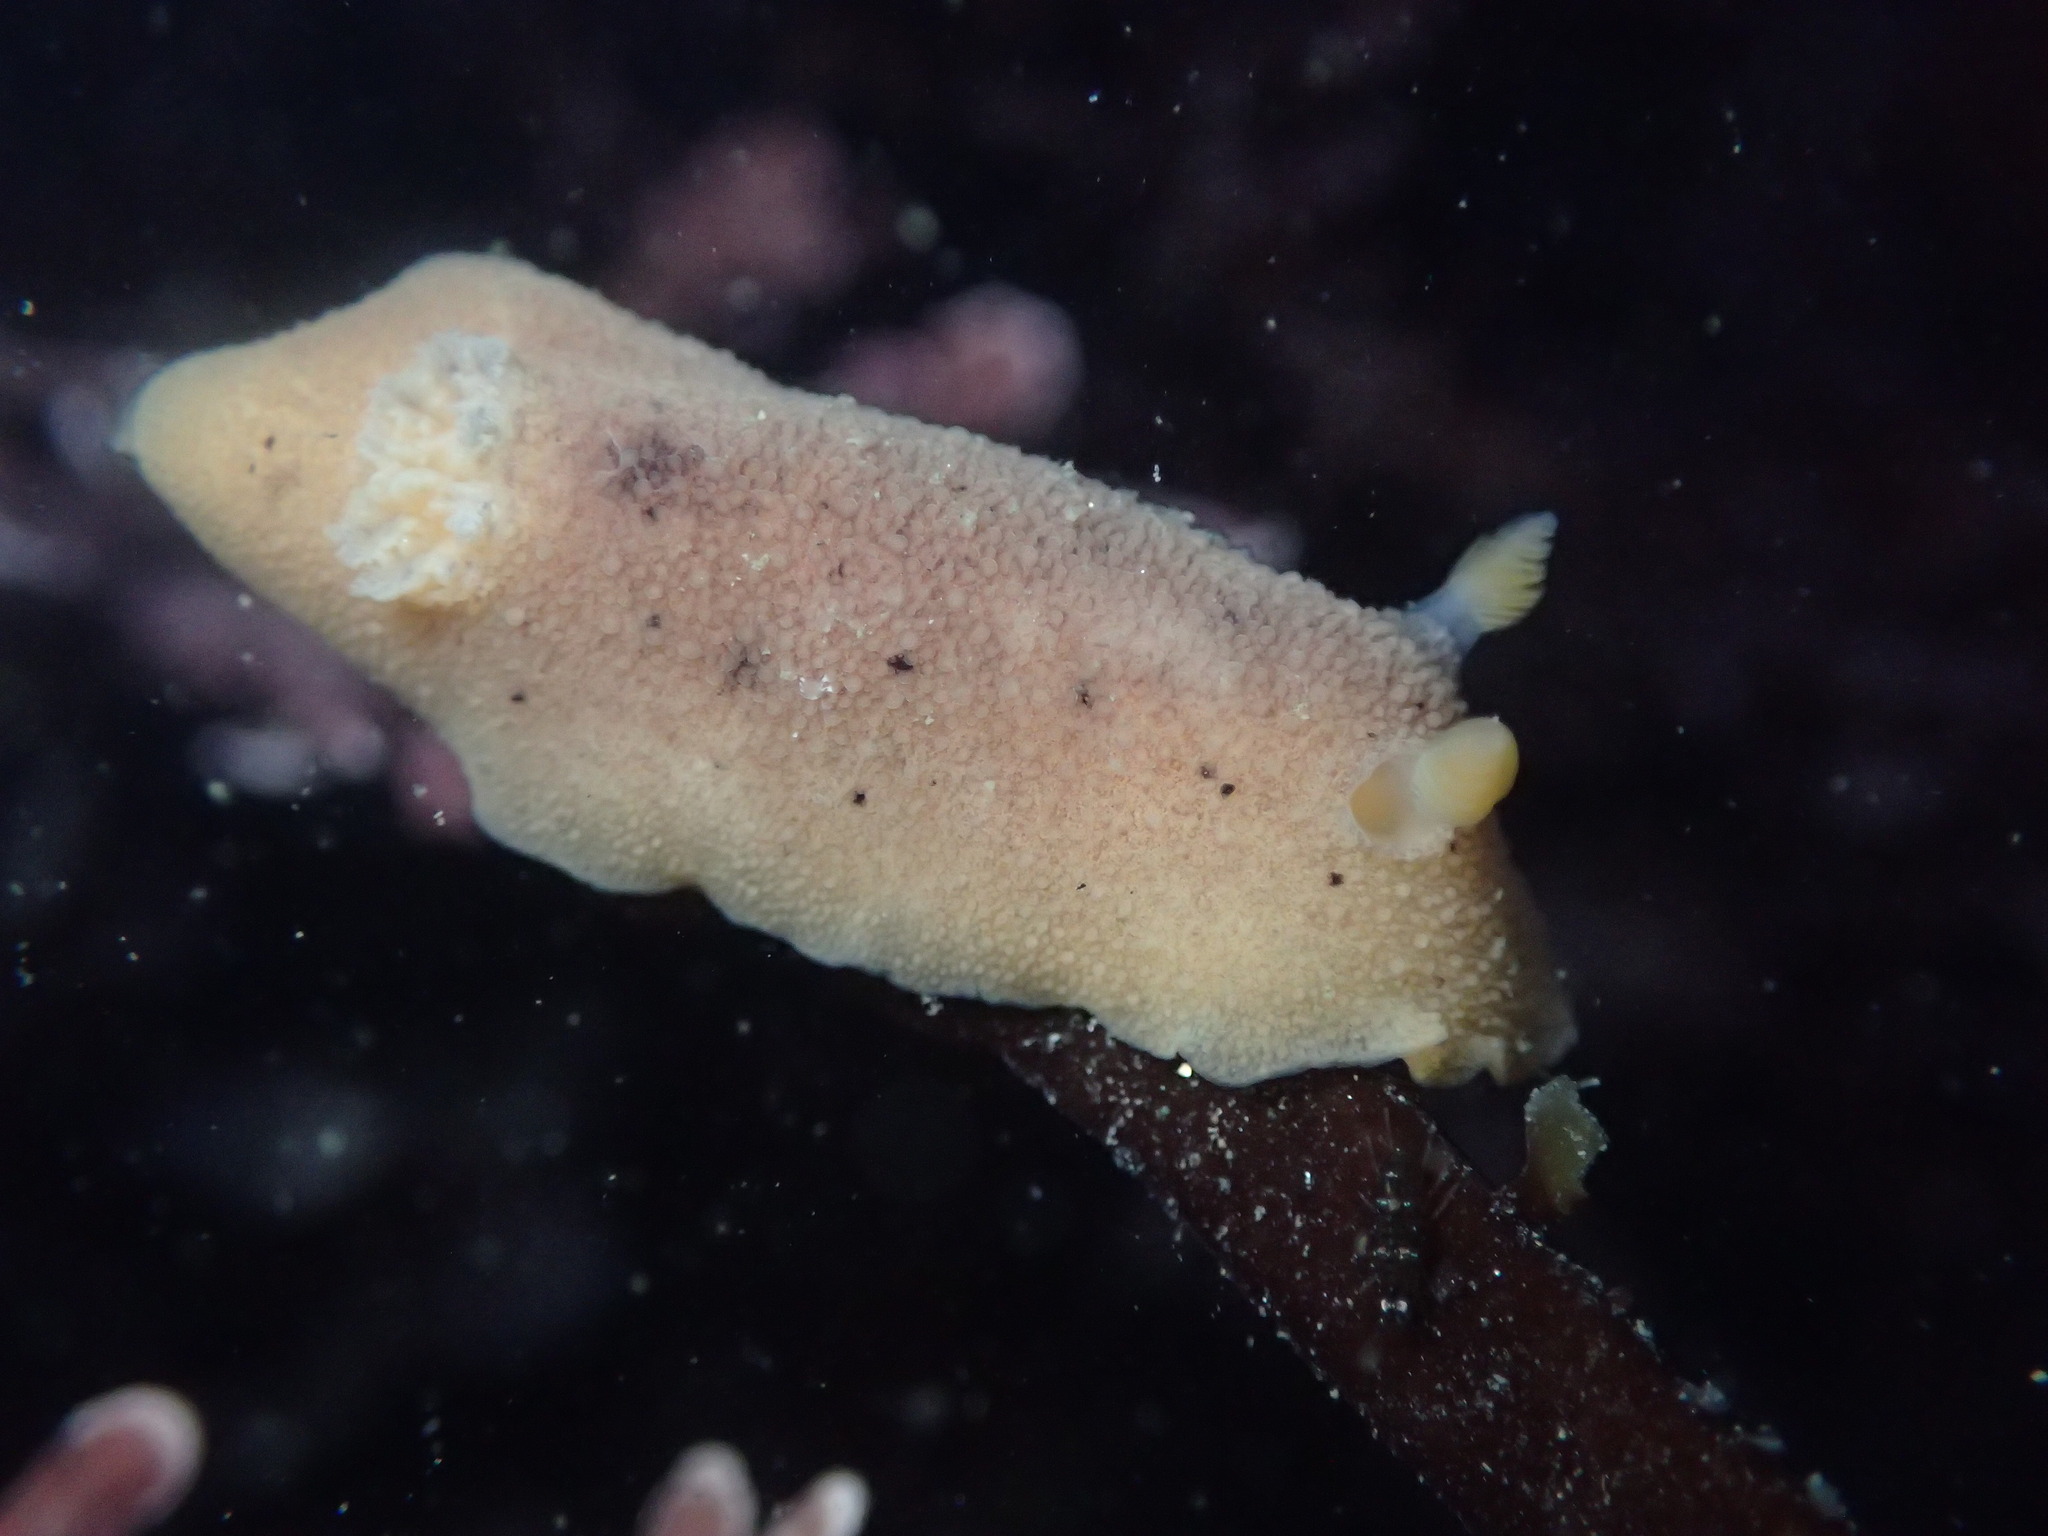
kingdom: Animalia
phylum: Mollusca
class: Gastropoda
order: Nudibranchia
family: Discodorididae
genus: Geitodoris
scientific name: Geitodoris heathi
